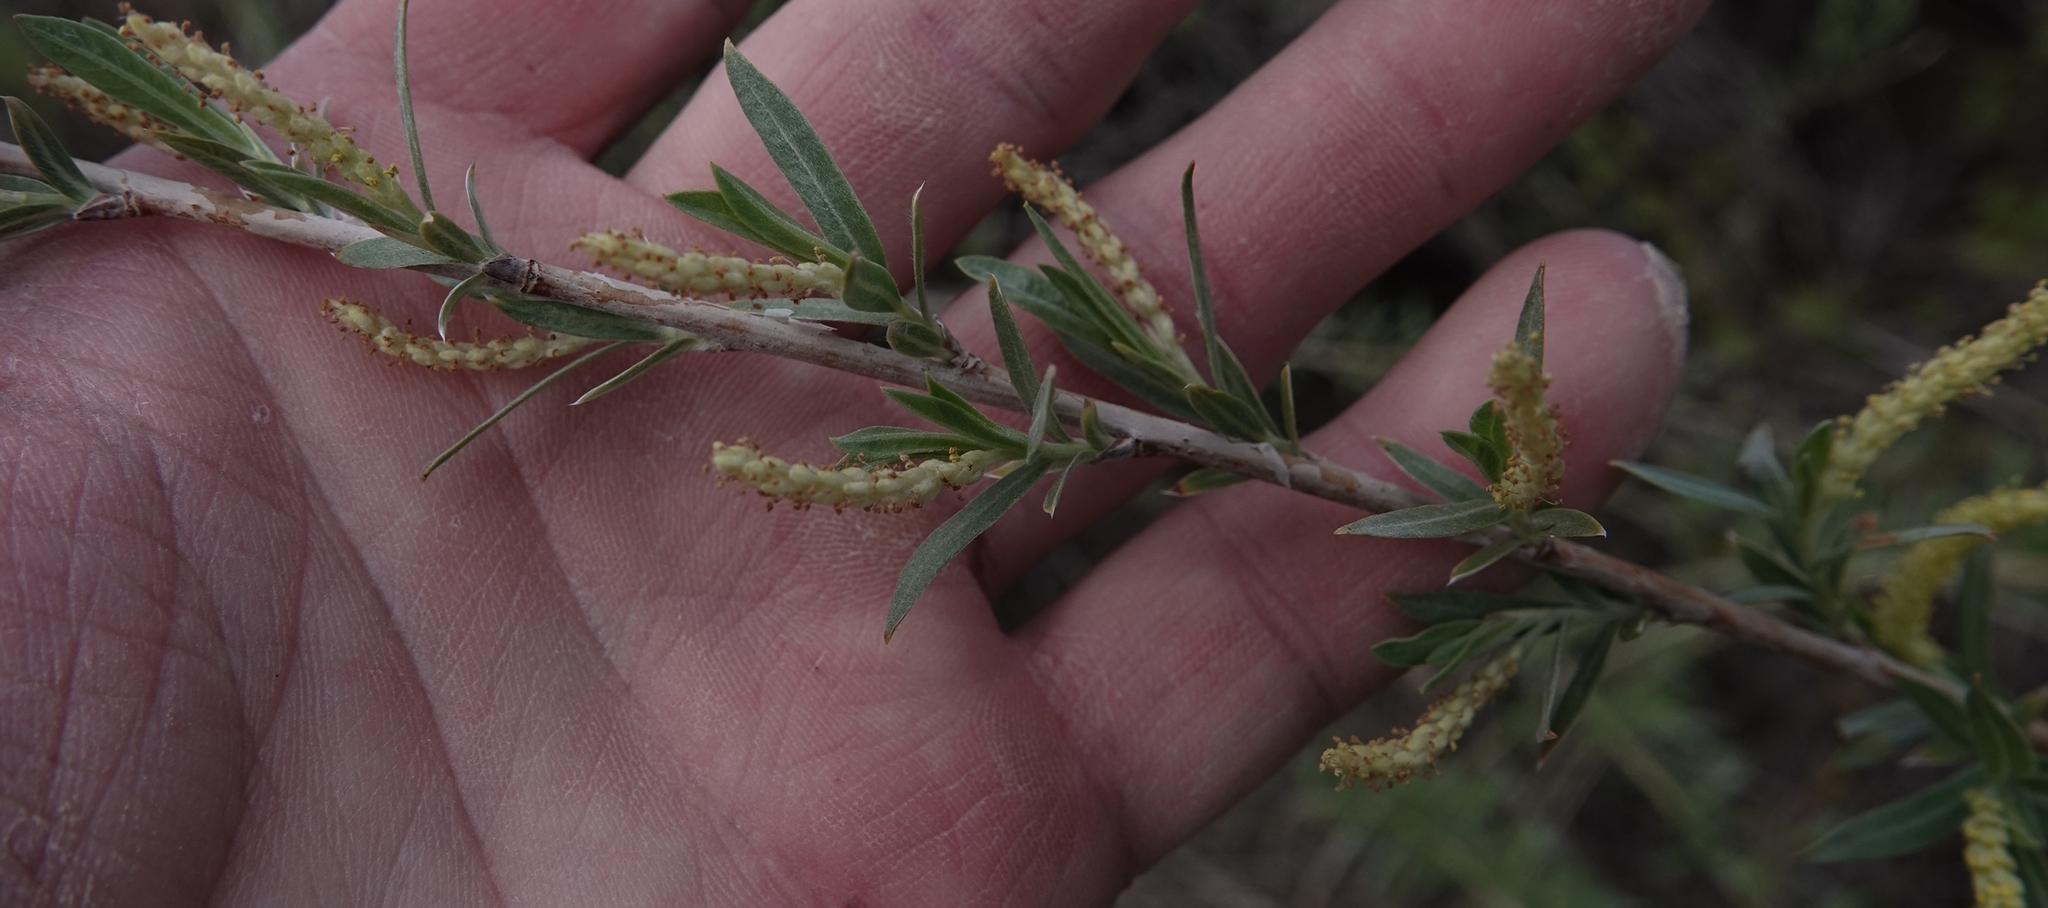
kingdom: Plantae
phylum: Tracheophyta
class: Magnoliopsida
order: Malpighiales
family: Salicaceae
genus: Salix
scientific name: Salix interior
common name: Sandbar willow
